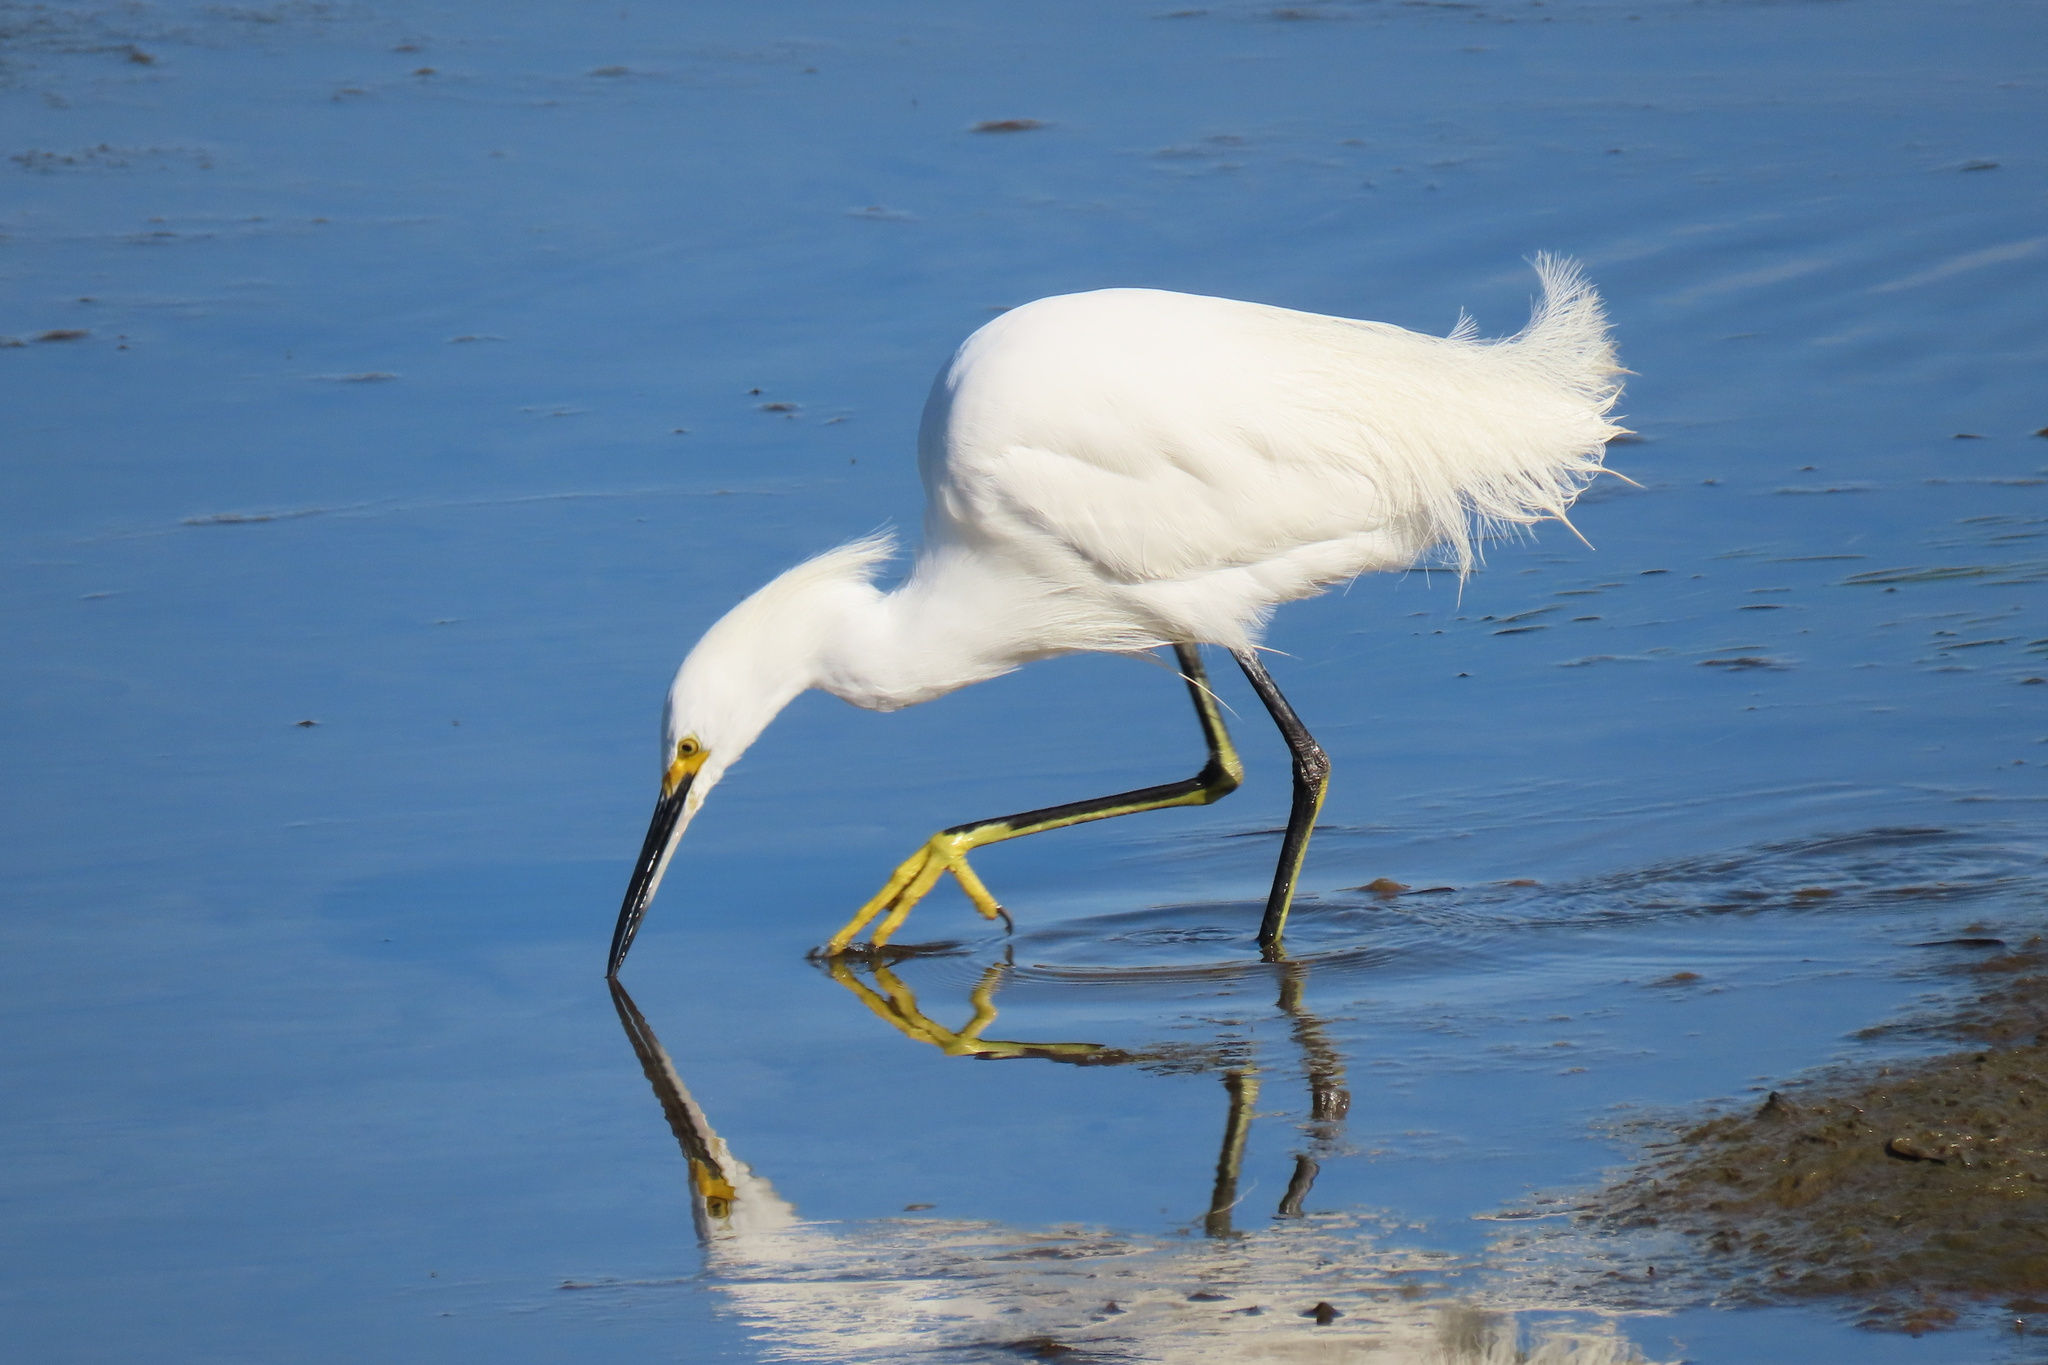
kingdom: Animalia
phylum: Chordata
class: Aves
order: Pelecaniformes
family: Ardeidae
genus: Egretta
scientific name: Egretta thula
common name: Snowy egret
